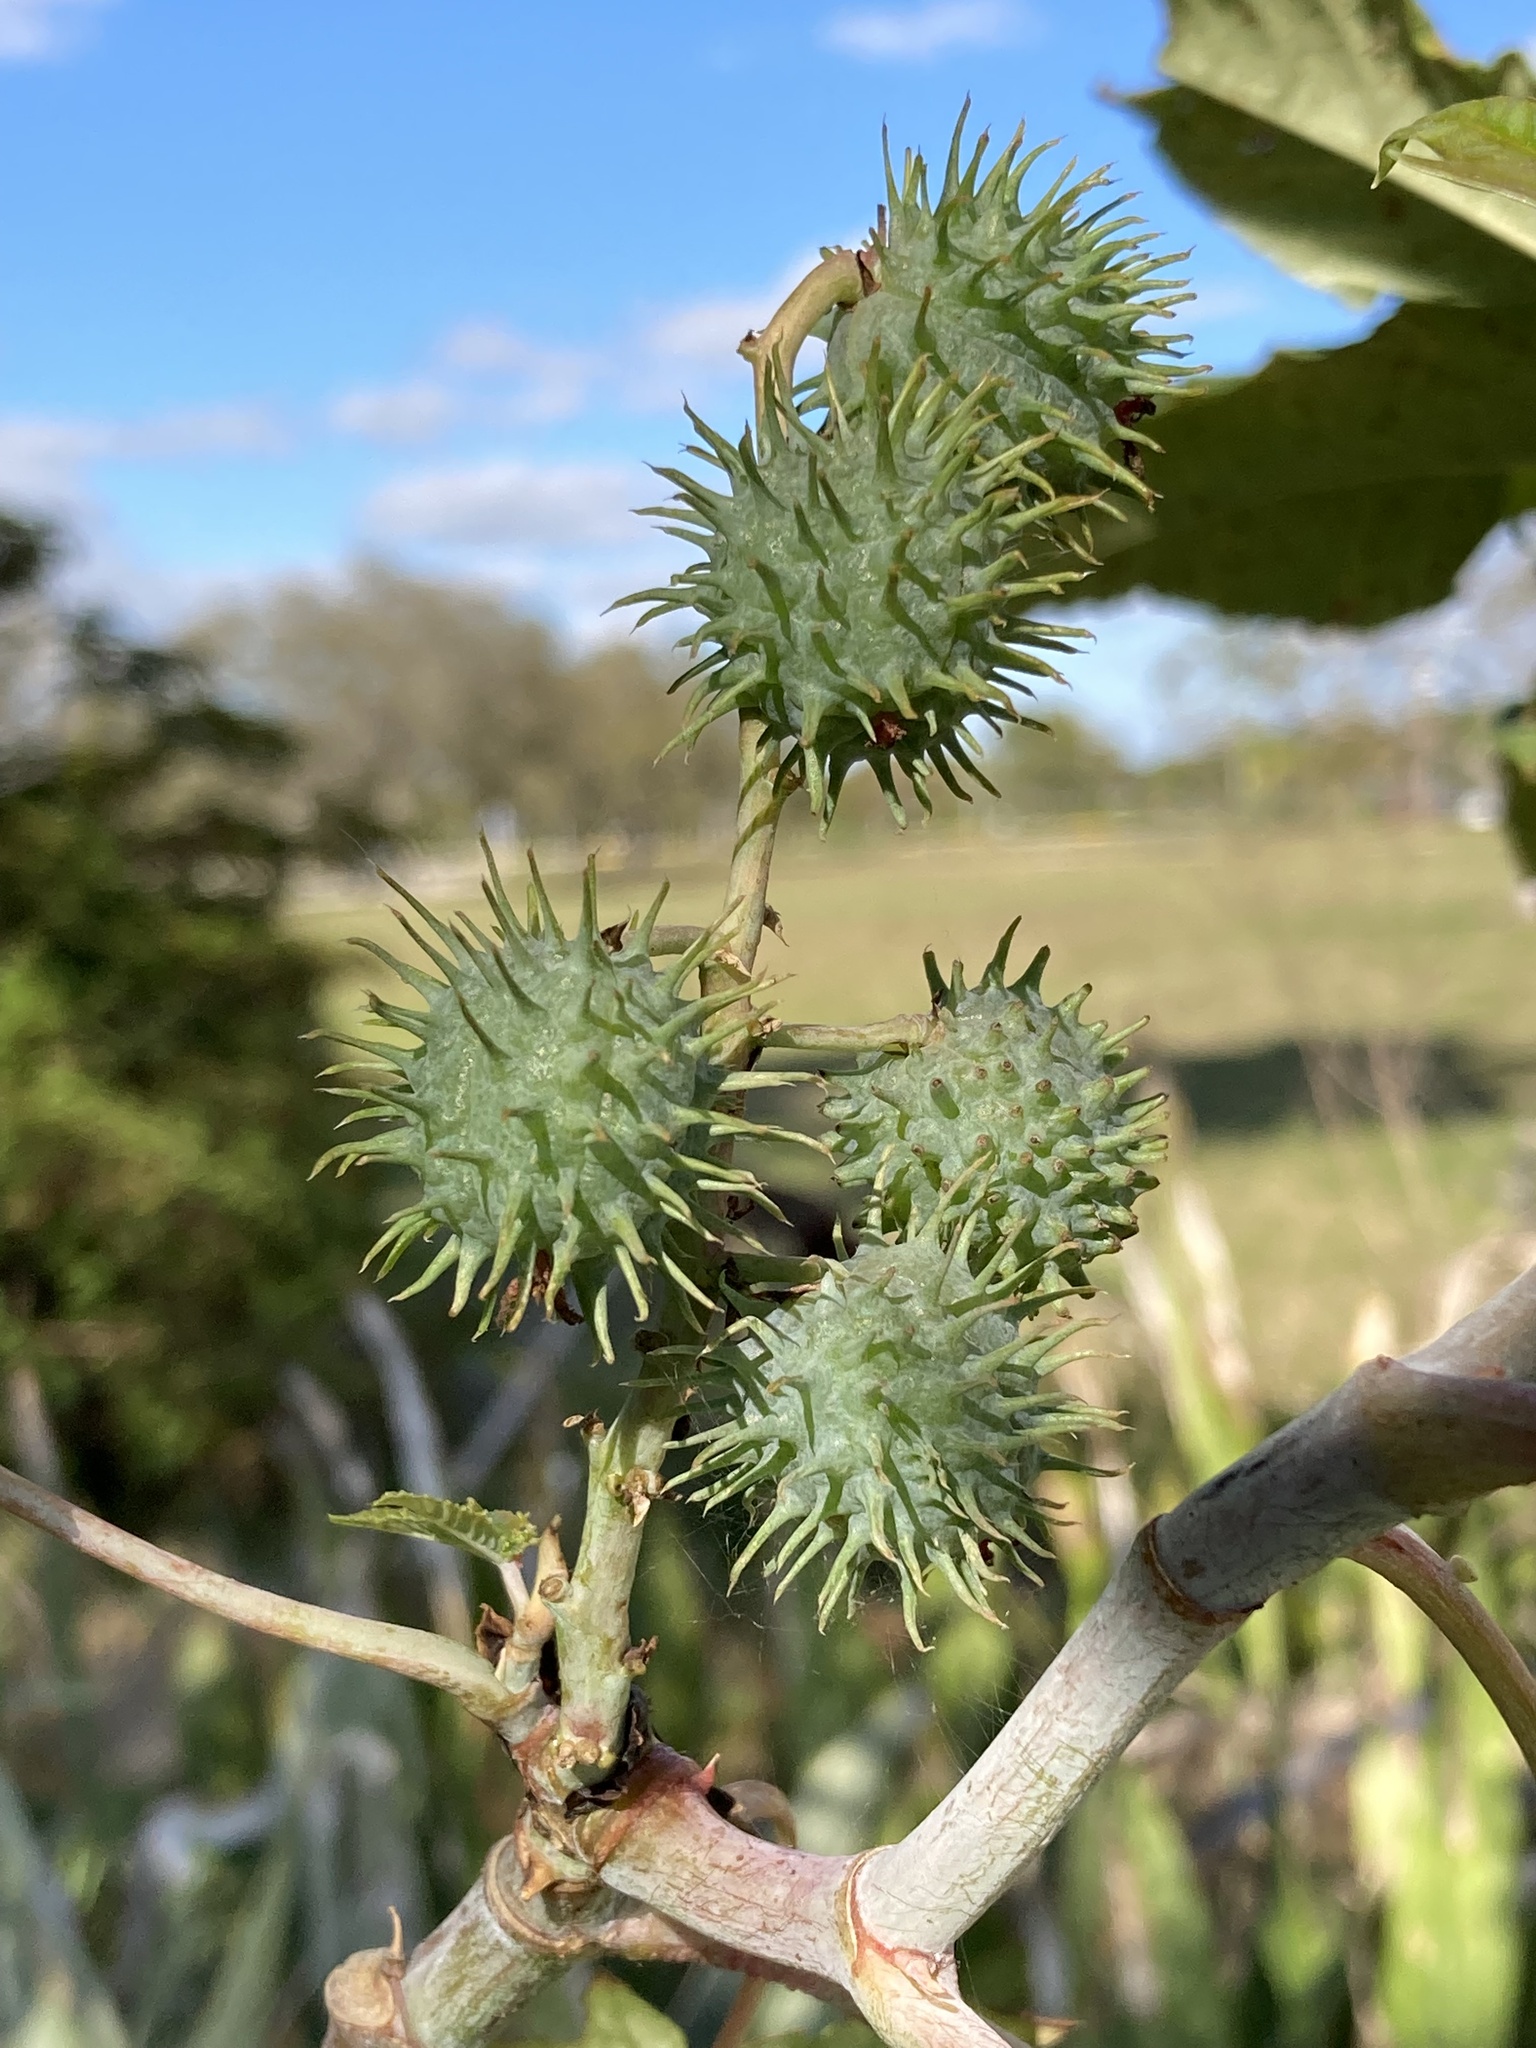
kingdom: Plantae
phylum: Tracheophyta
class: Magnoliopsida
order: Malpighiales
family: Euphorbiaceae
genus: Ricinus
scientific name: Ricinus communis
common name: Castor-oil-plant
